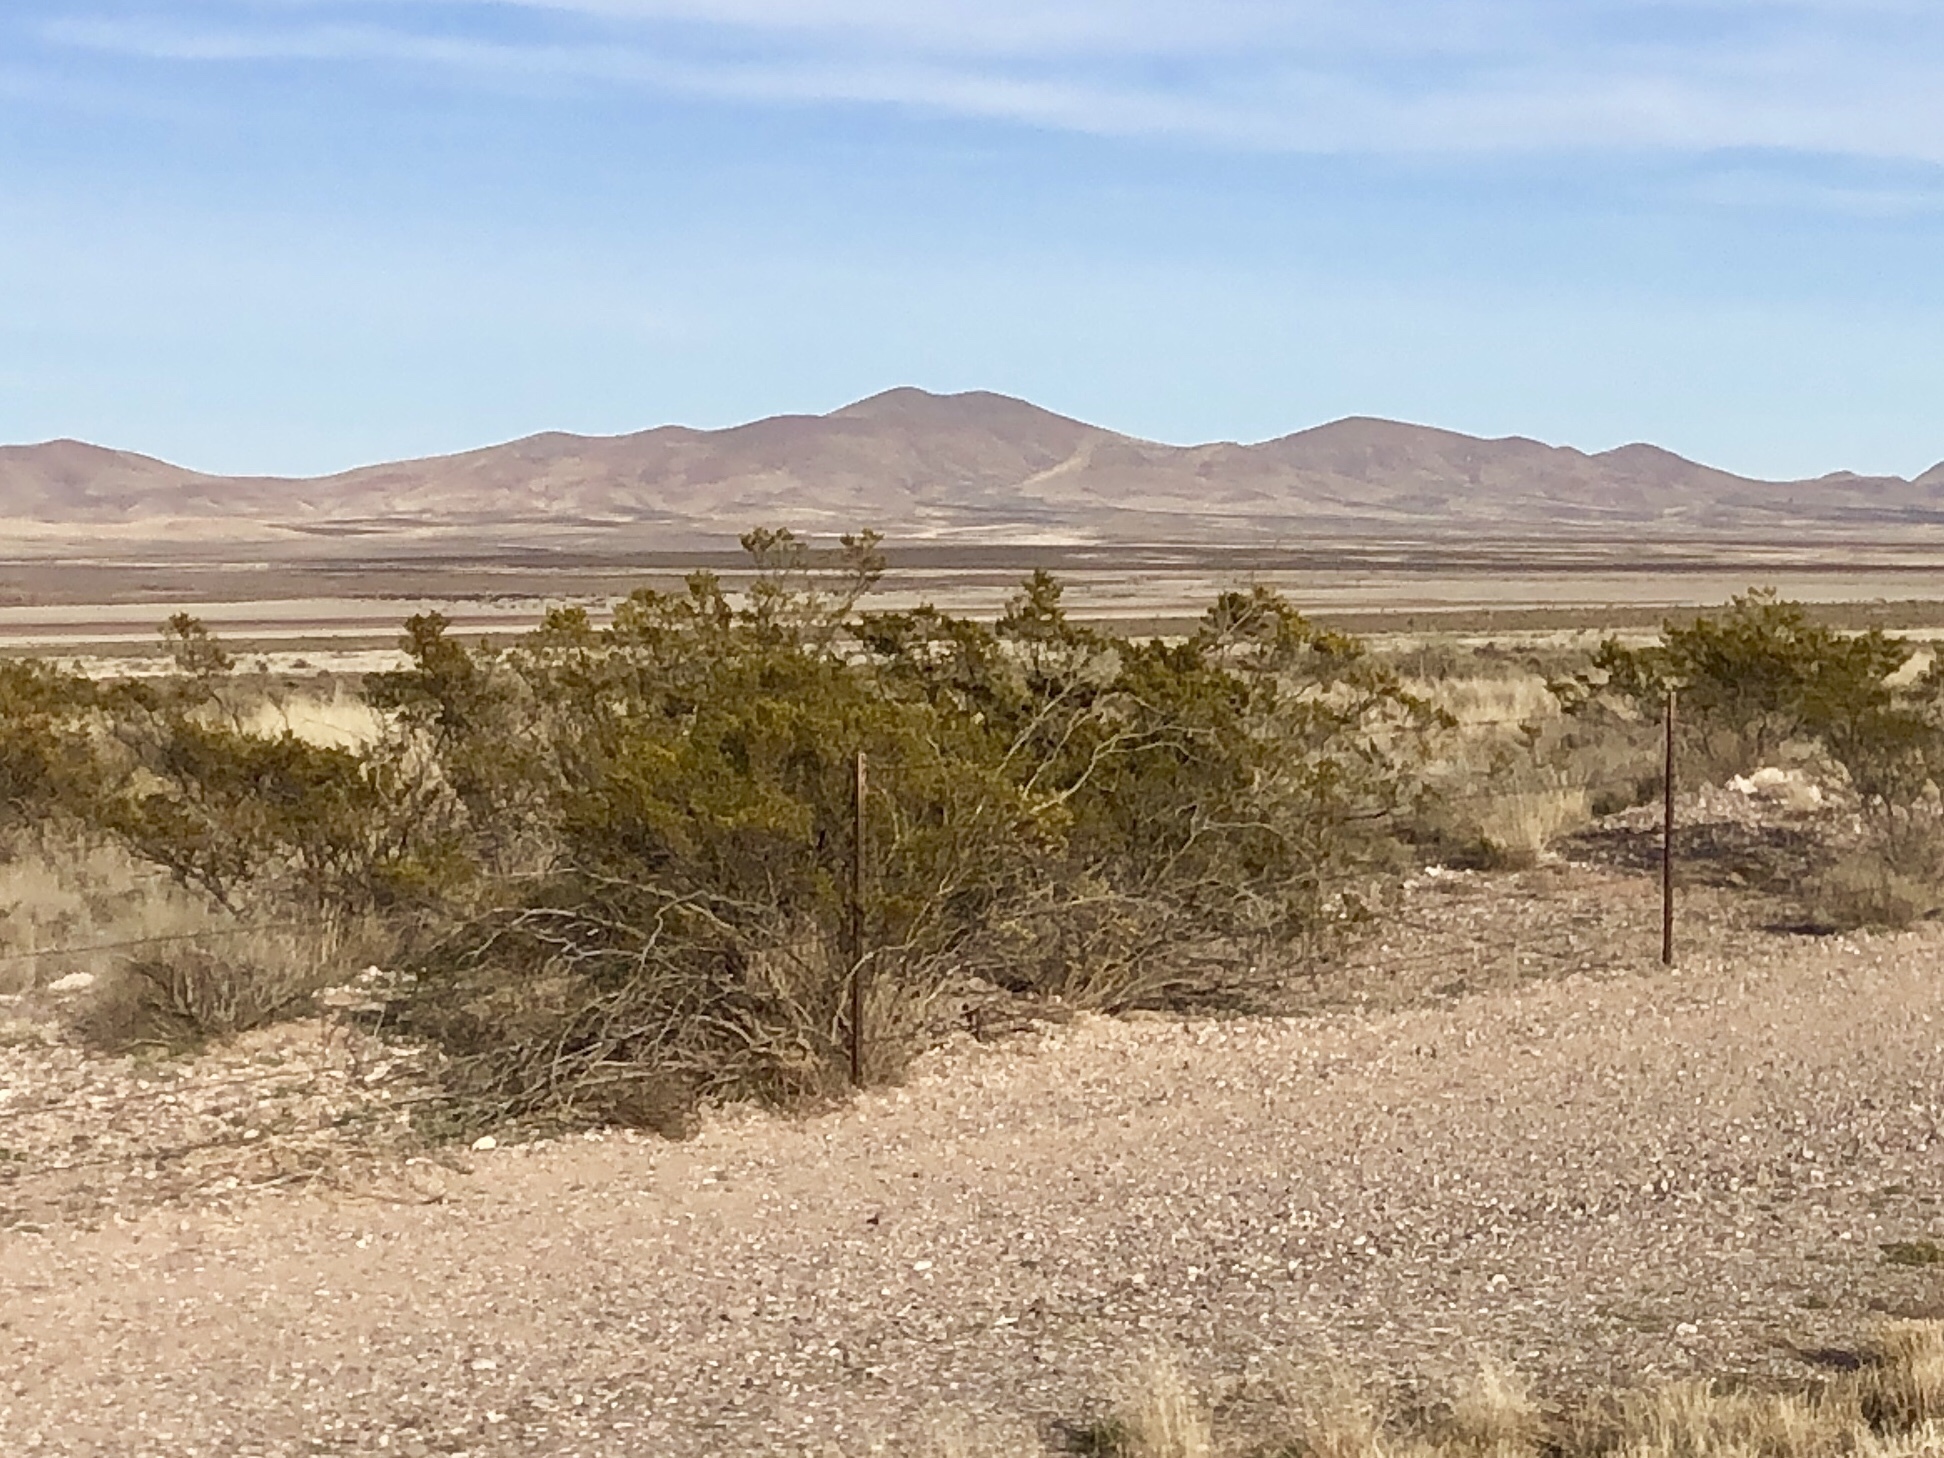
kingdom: Plantae
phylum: Tracheophyta
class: Magnoliopsida
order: Zygophyllales
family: Zygophyllaceae
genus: Larrea
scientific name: Larrea tridentata
